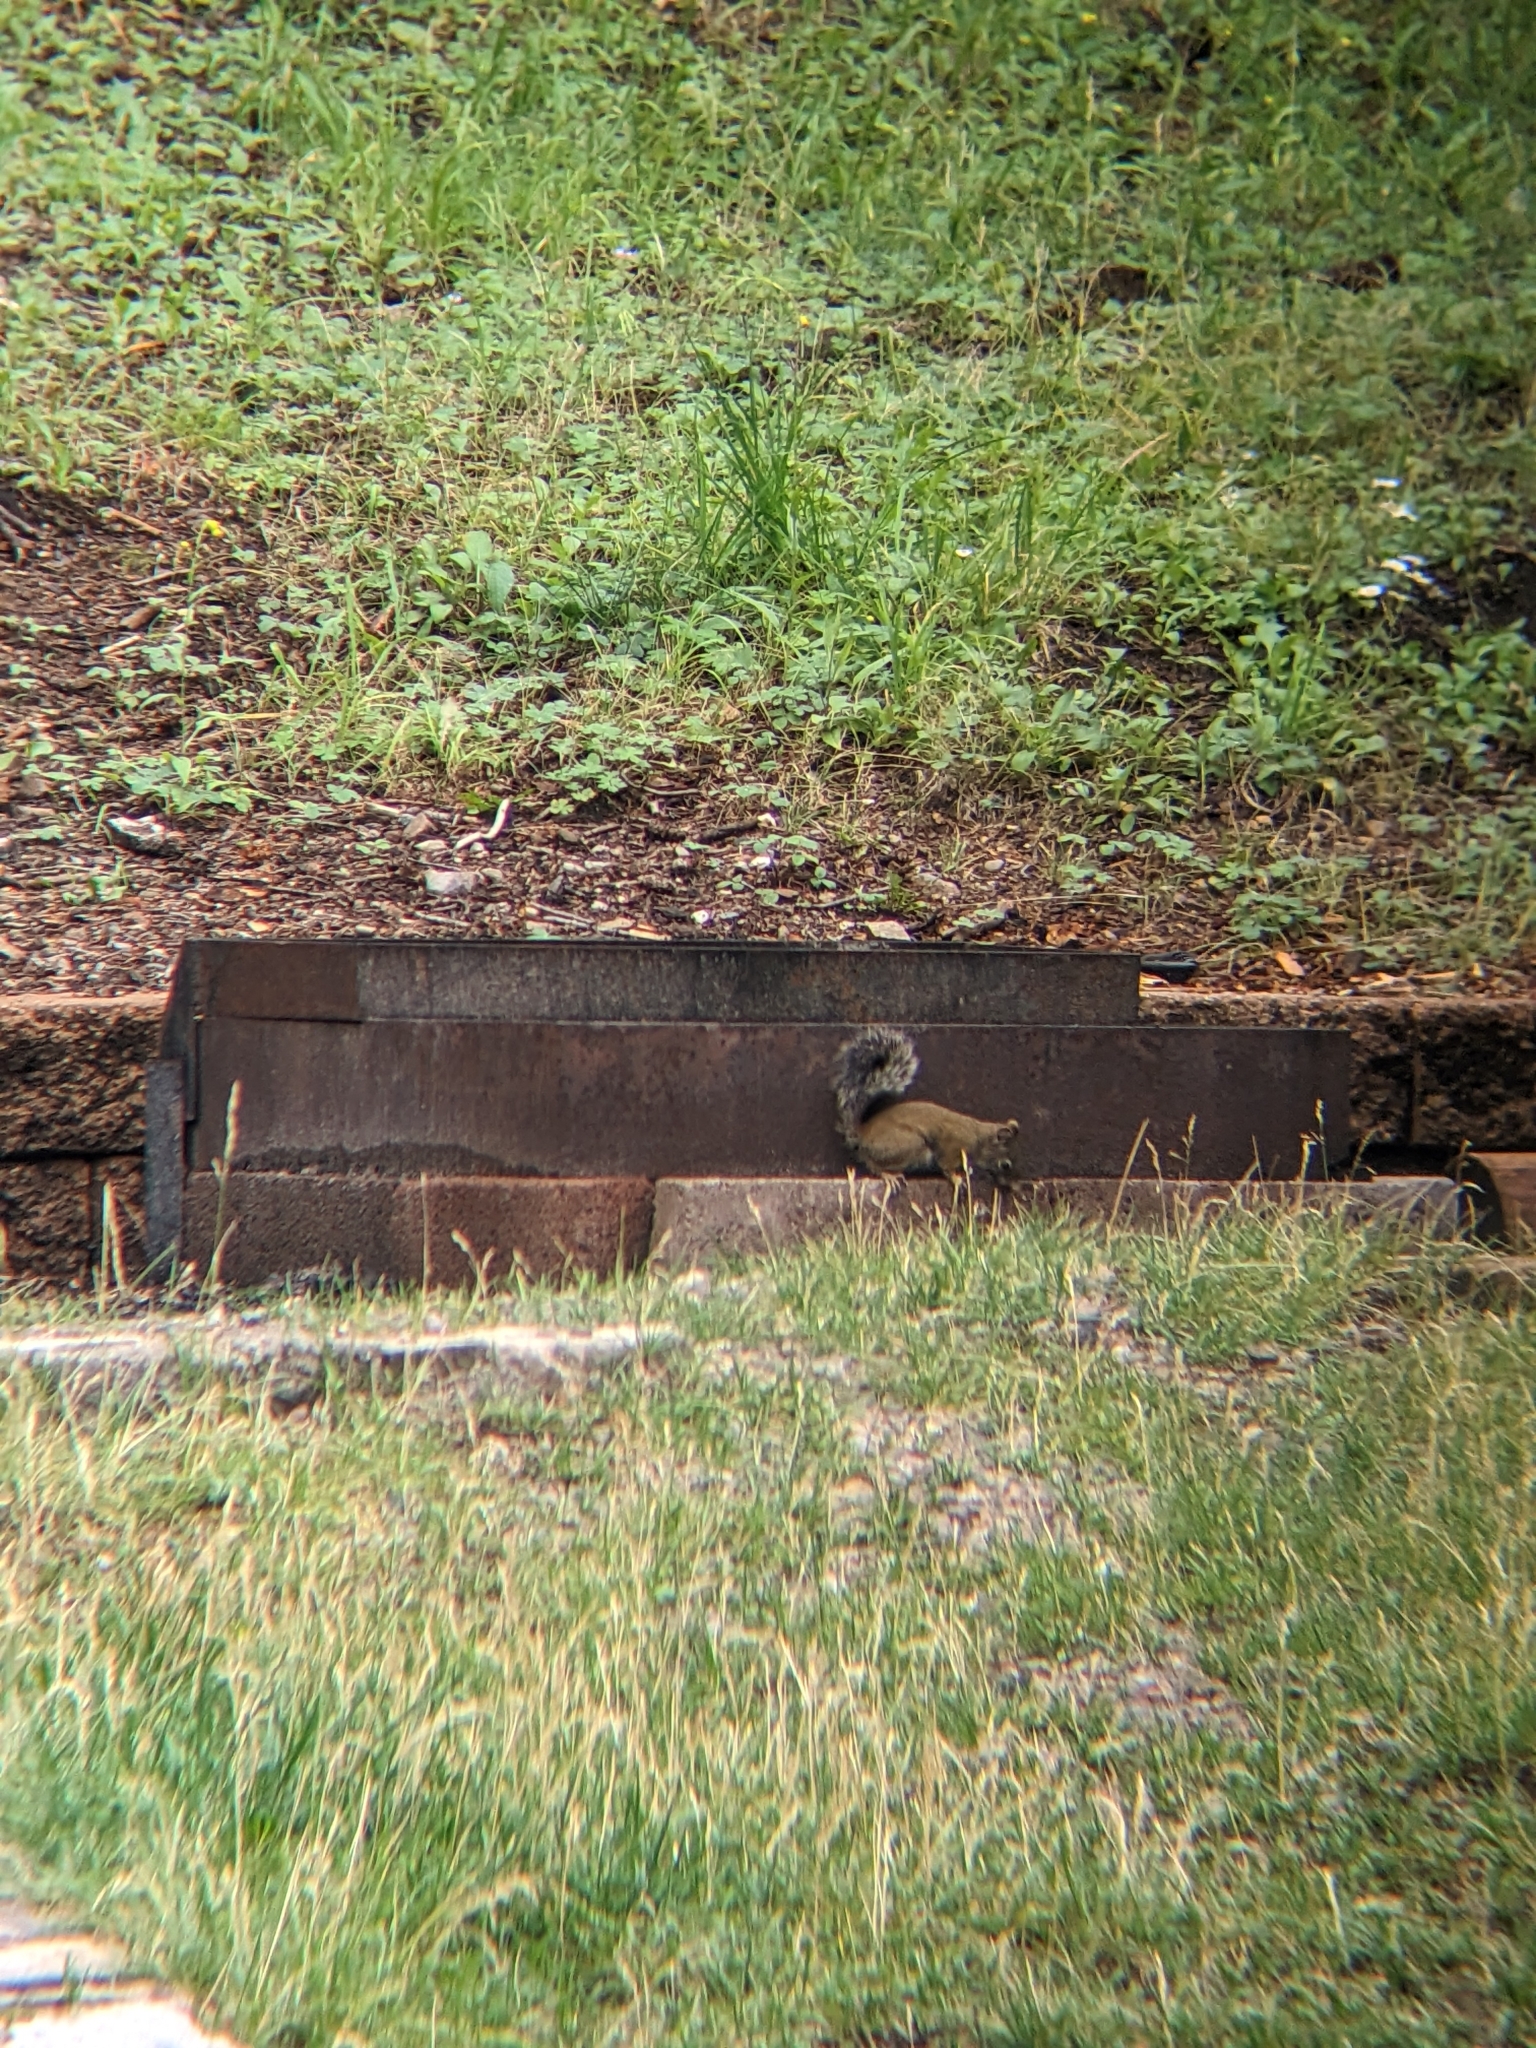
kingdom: Animalia
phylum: Chordata
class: Mammalia
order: Rodentia
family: Sciuridae
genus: Tamiasciurus
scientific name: Tamiasciurus hudsonicus
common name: Red squirrel
